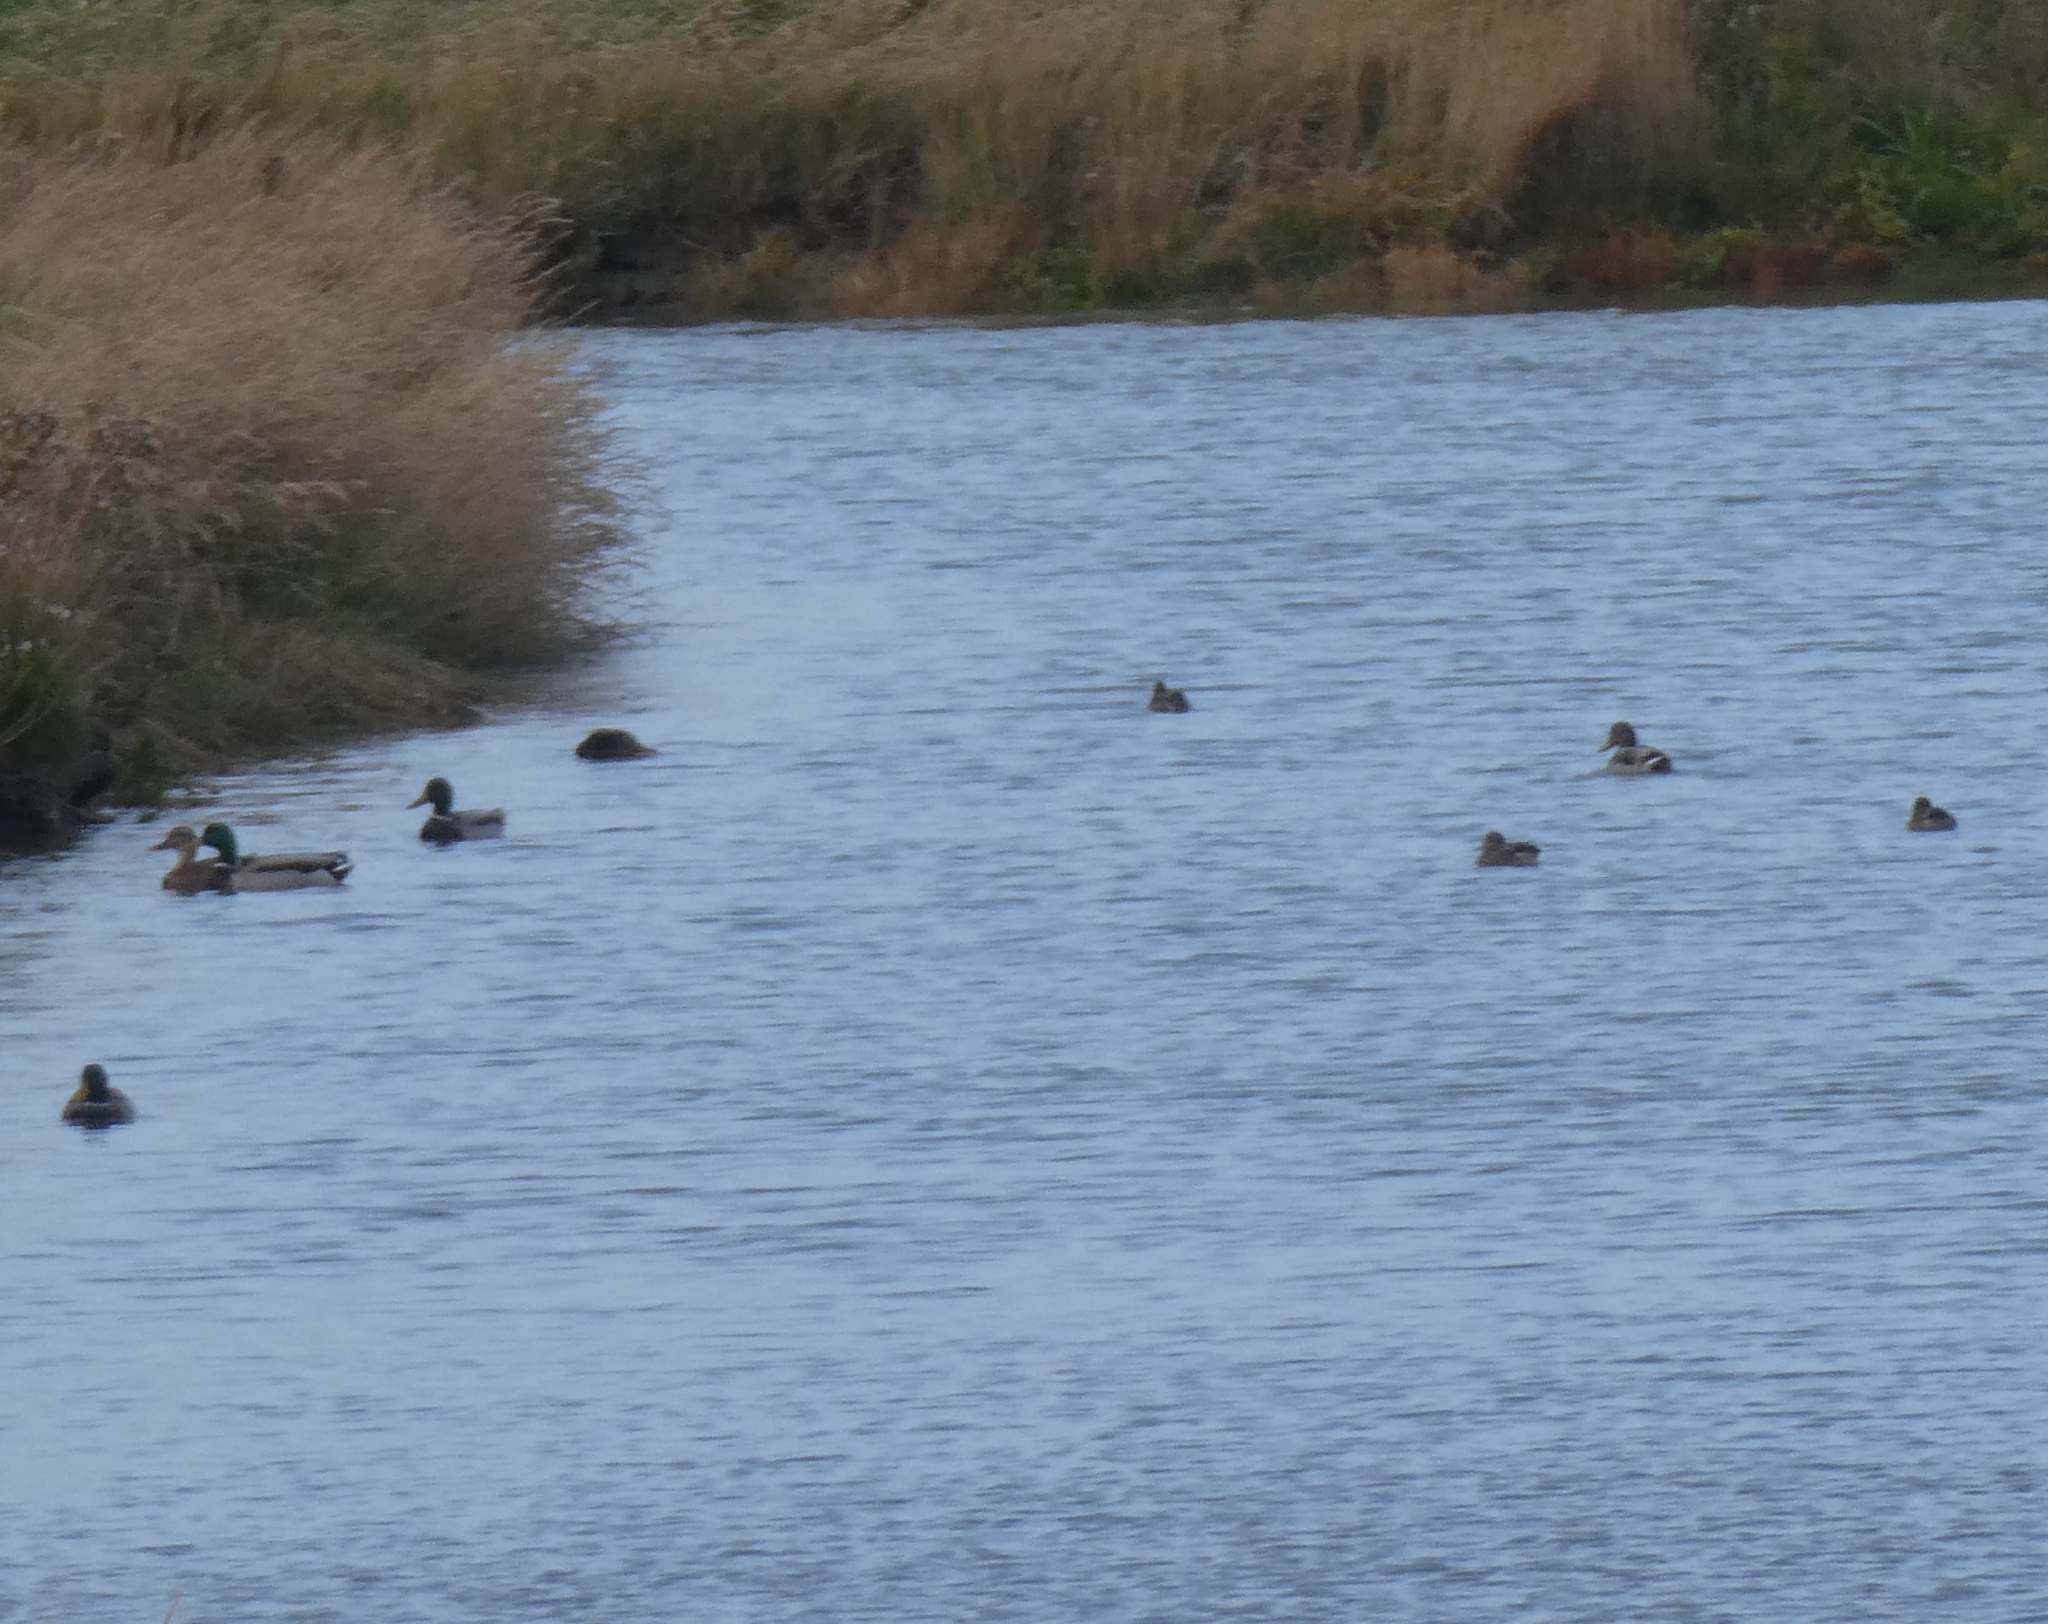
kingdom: Animalia
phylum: Chordata
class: Aves
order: Anseriformes
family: Anatidae
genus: Anas
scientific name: Anas platyrhynchos
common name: Mallard
